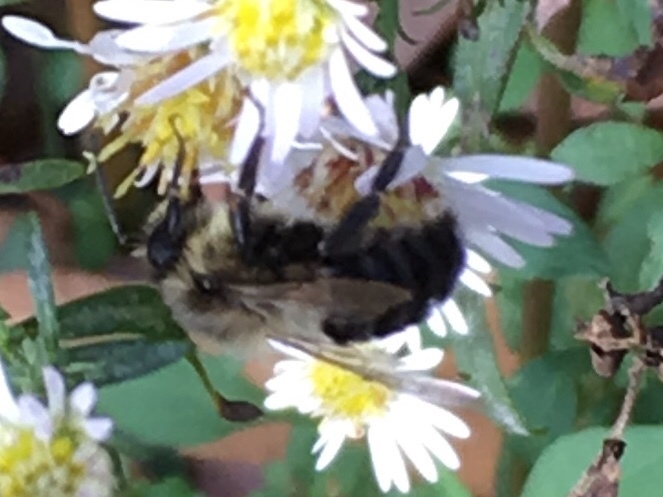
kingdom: Animalia
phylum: Arthropoda
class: Insecta
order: Hymenoptera
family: Apidae
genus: Bombus
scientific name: Bombus impatiens
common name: Common eastern bumble bee
